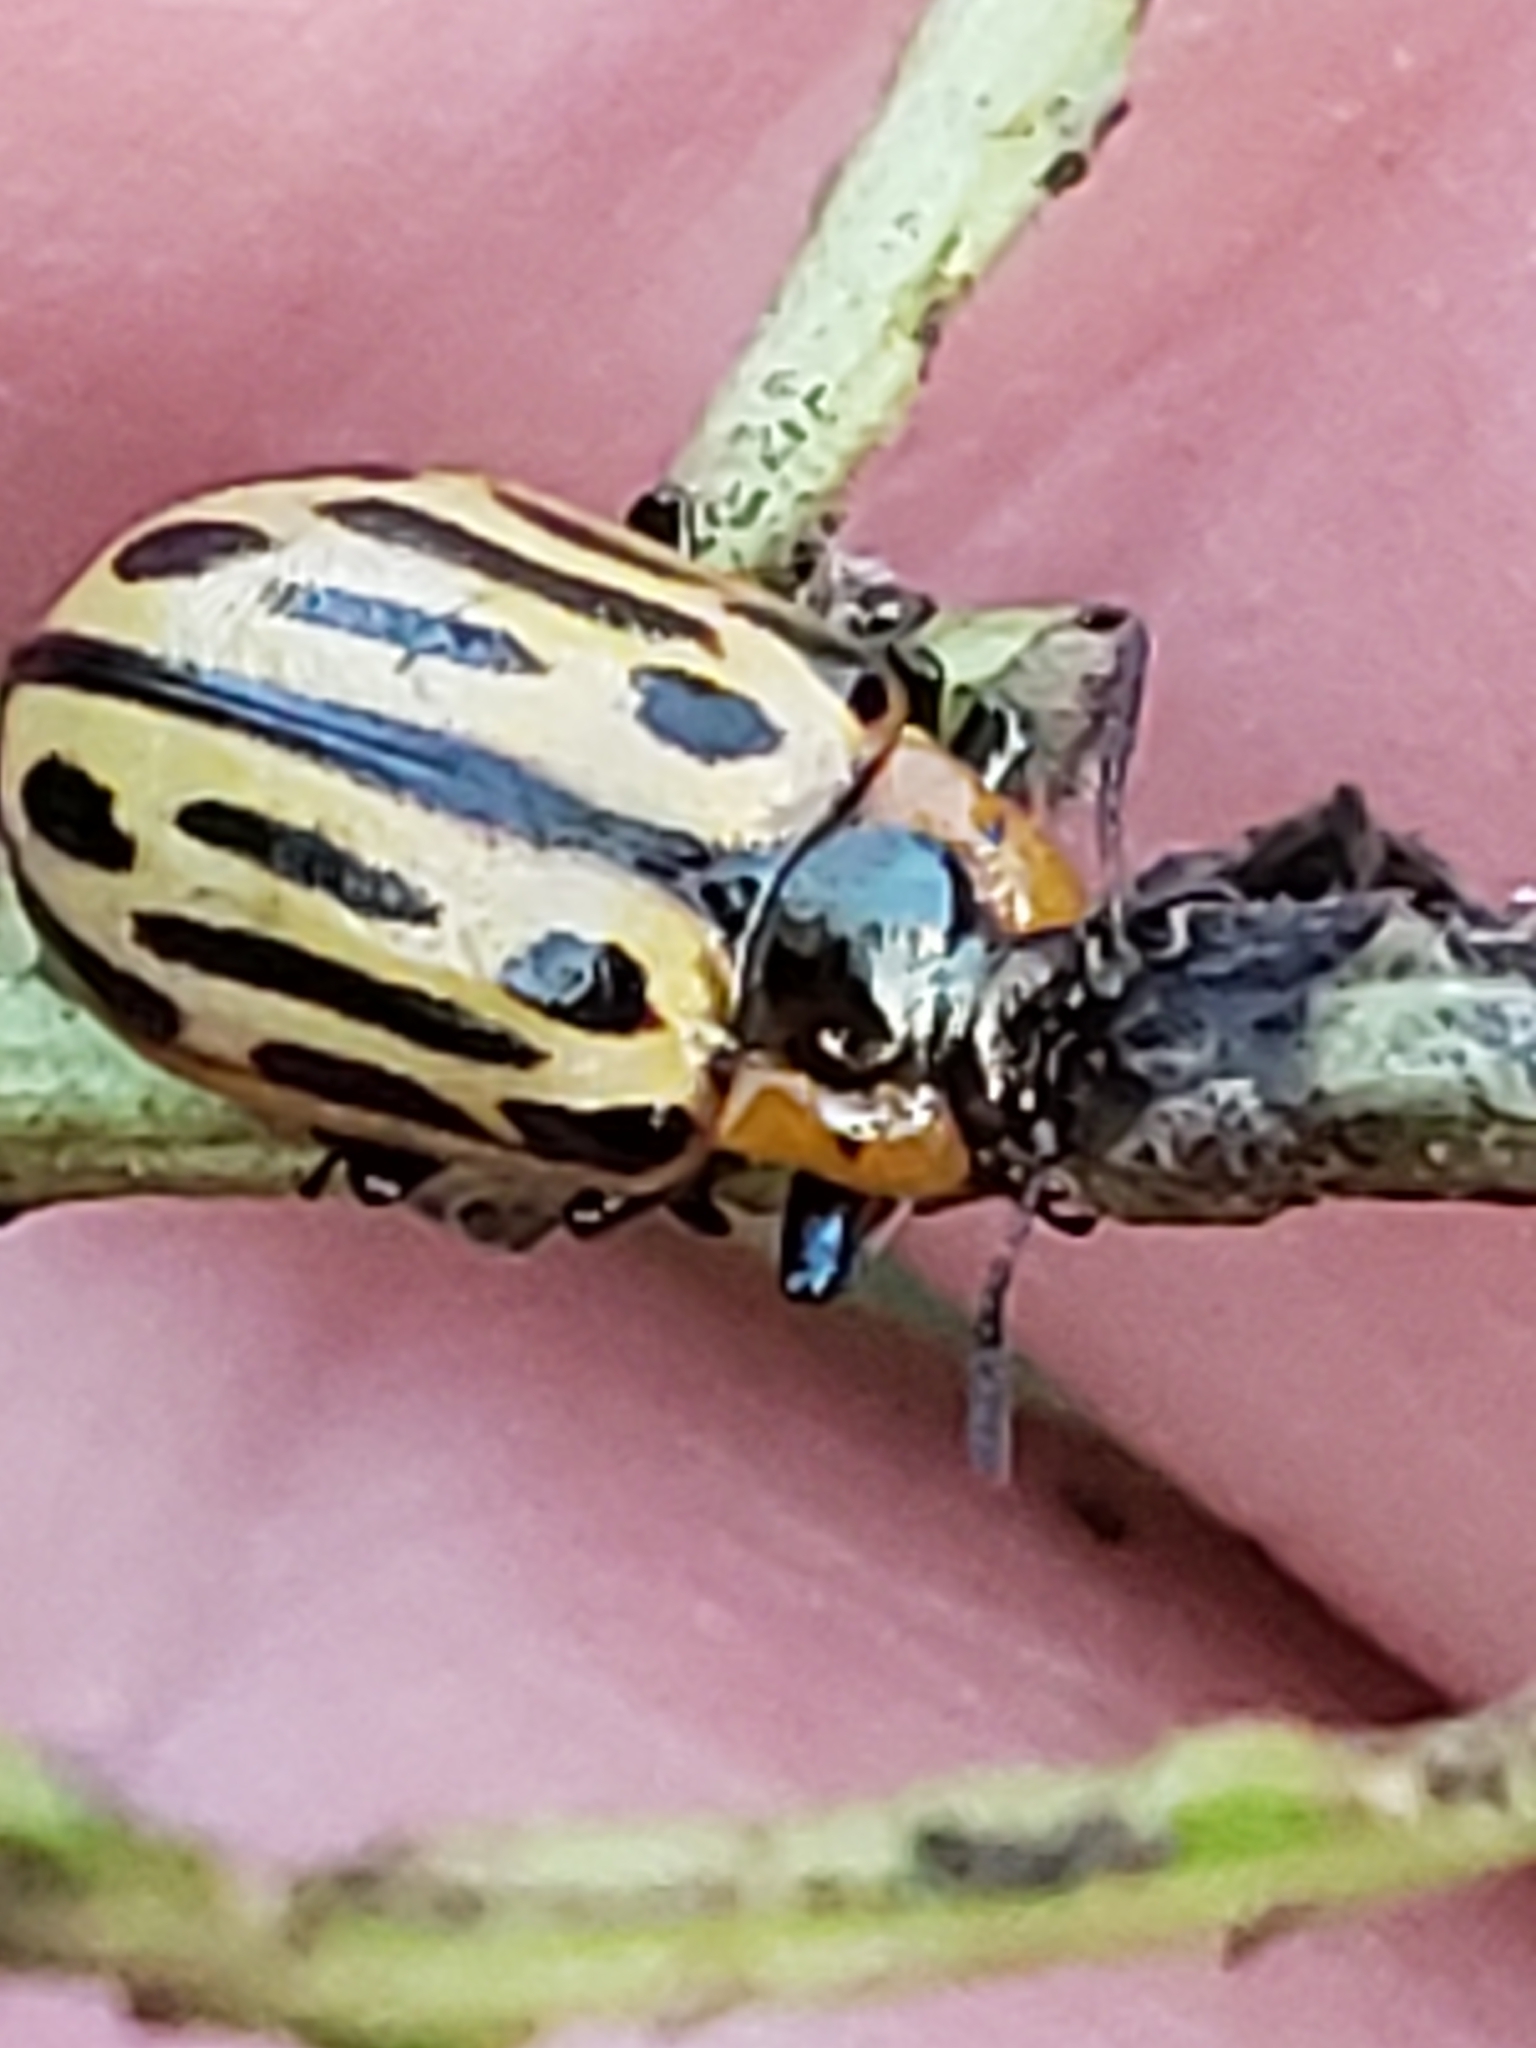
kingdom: Animalia
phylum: Arthropoda
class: Insecta
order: Coleoptera
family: Chrysomelidae
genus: Aethiopocassis
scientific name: Aethiopocassis scripta
